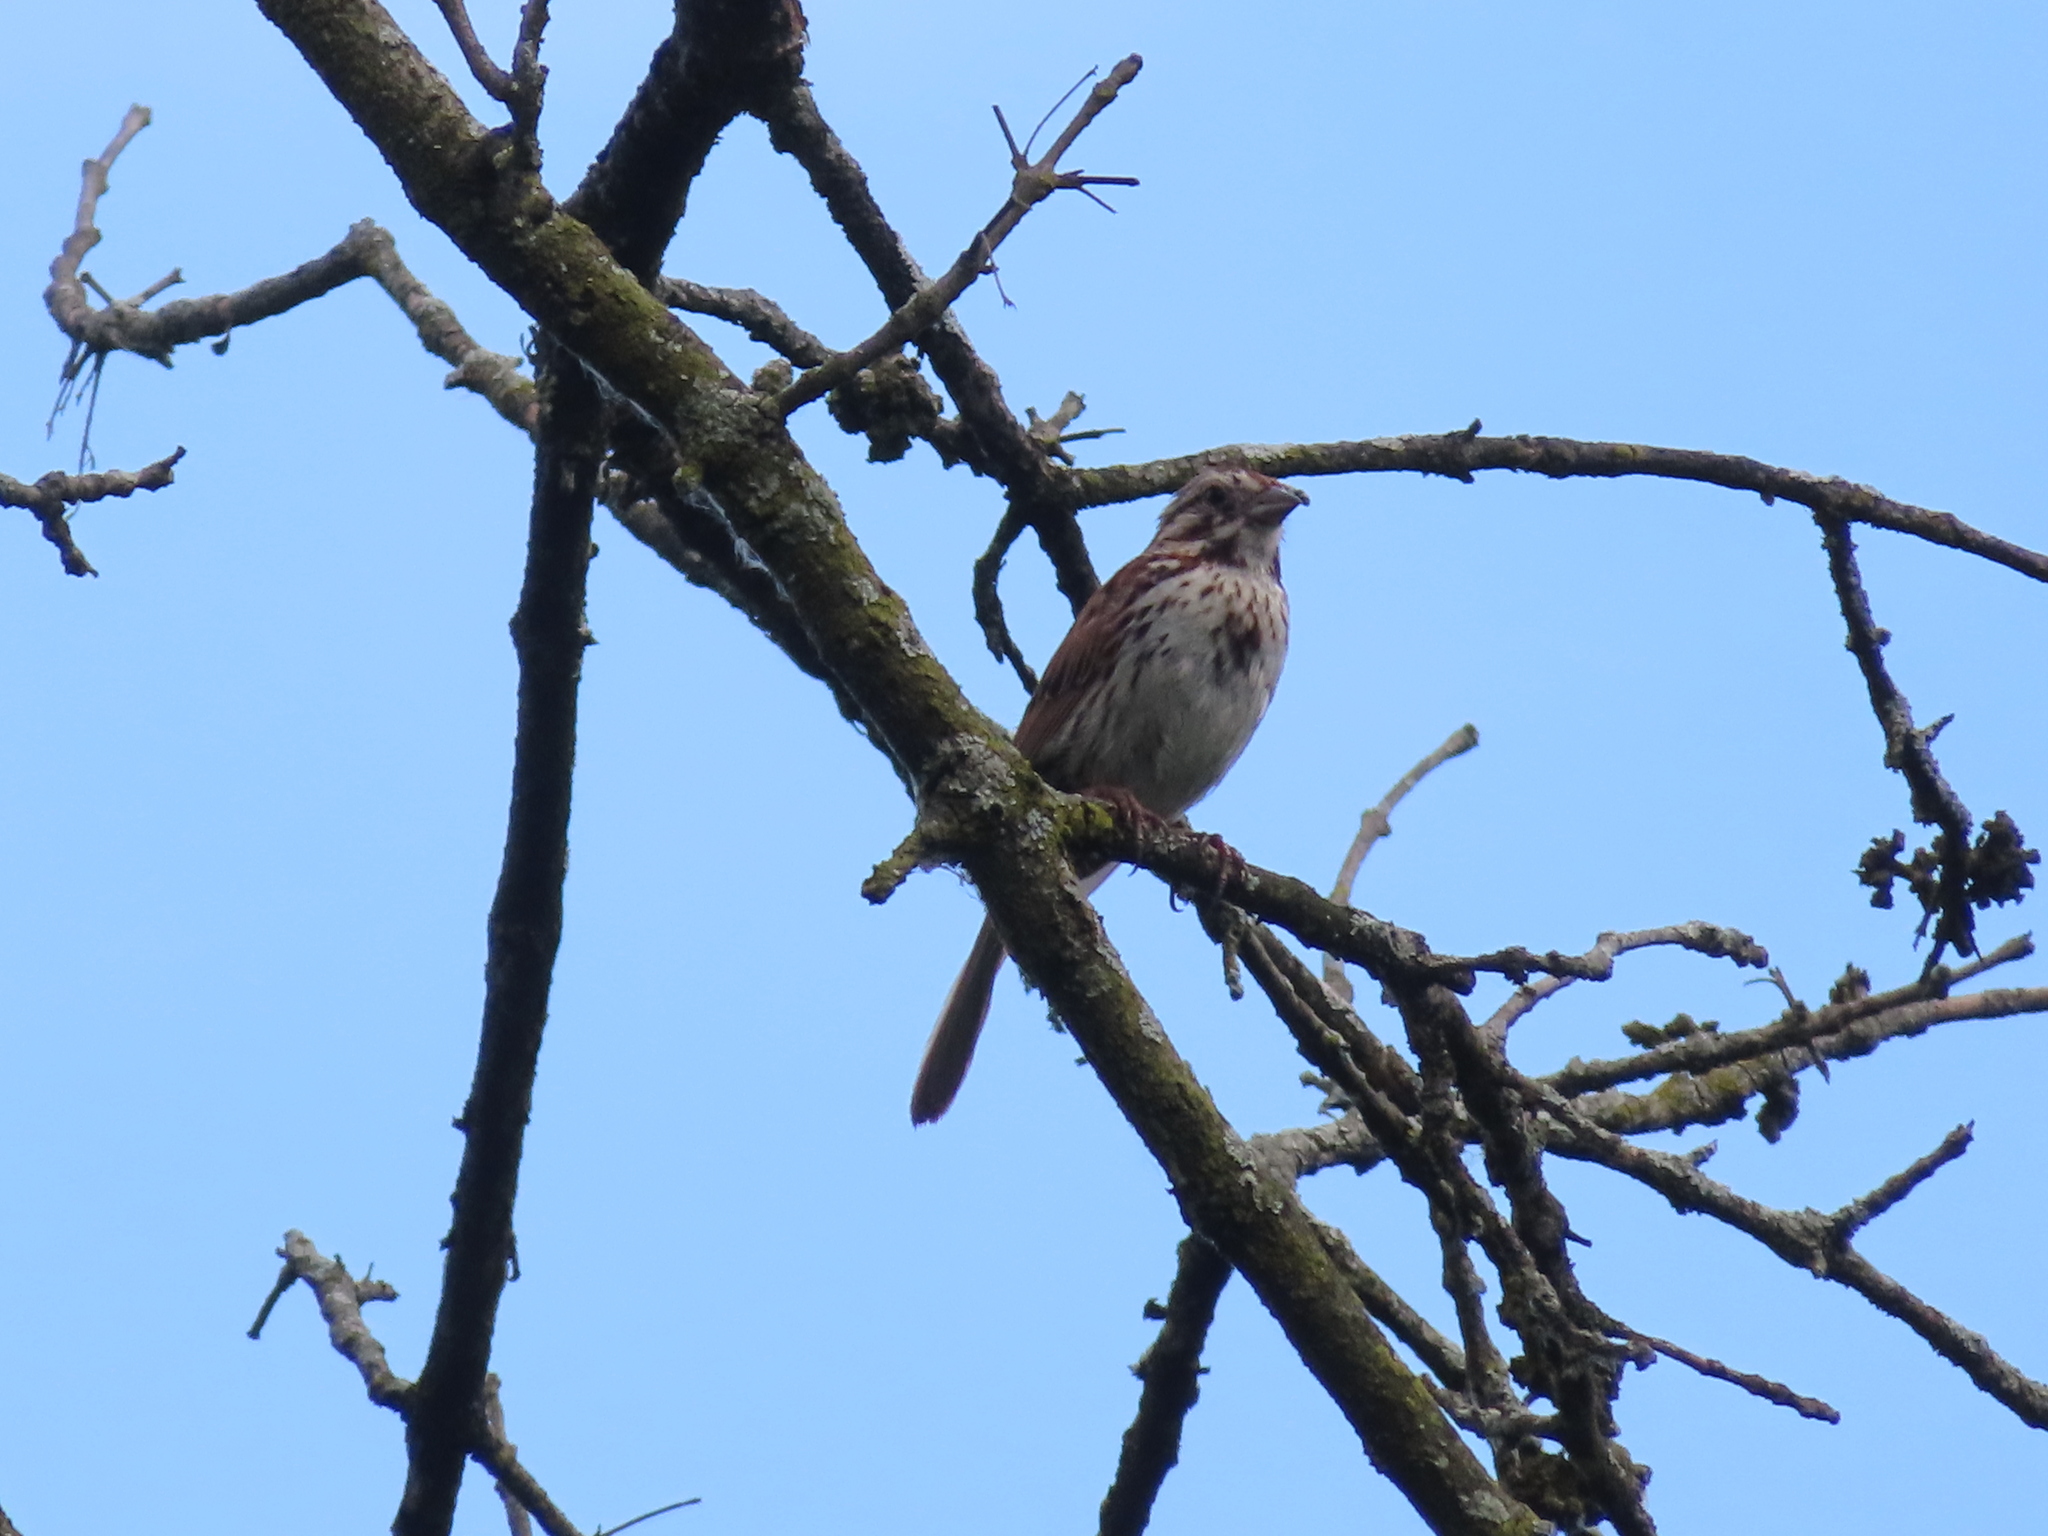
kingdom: Animalia
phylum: Chordata
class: Aves
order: Passeriformes
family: Passerellidae
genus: Melospiza
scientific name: Melospiza melodia
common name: Song sparrow
